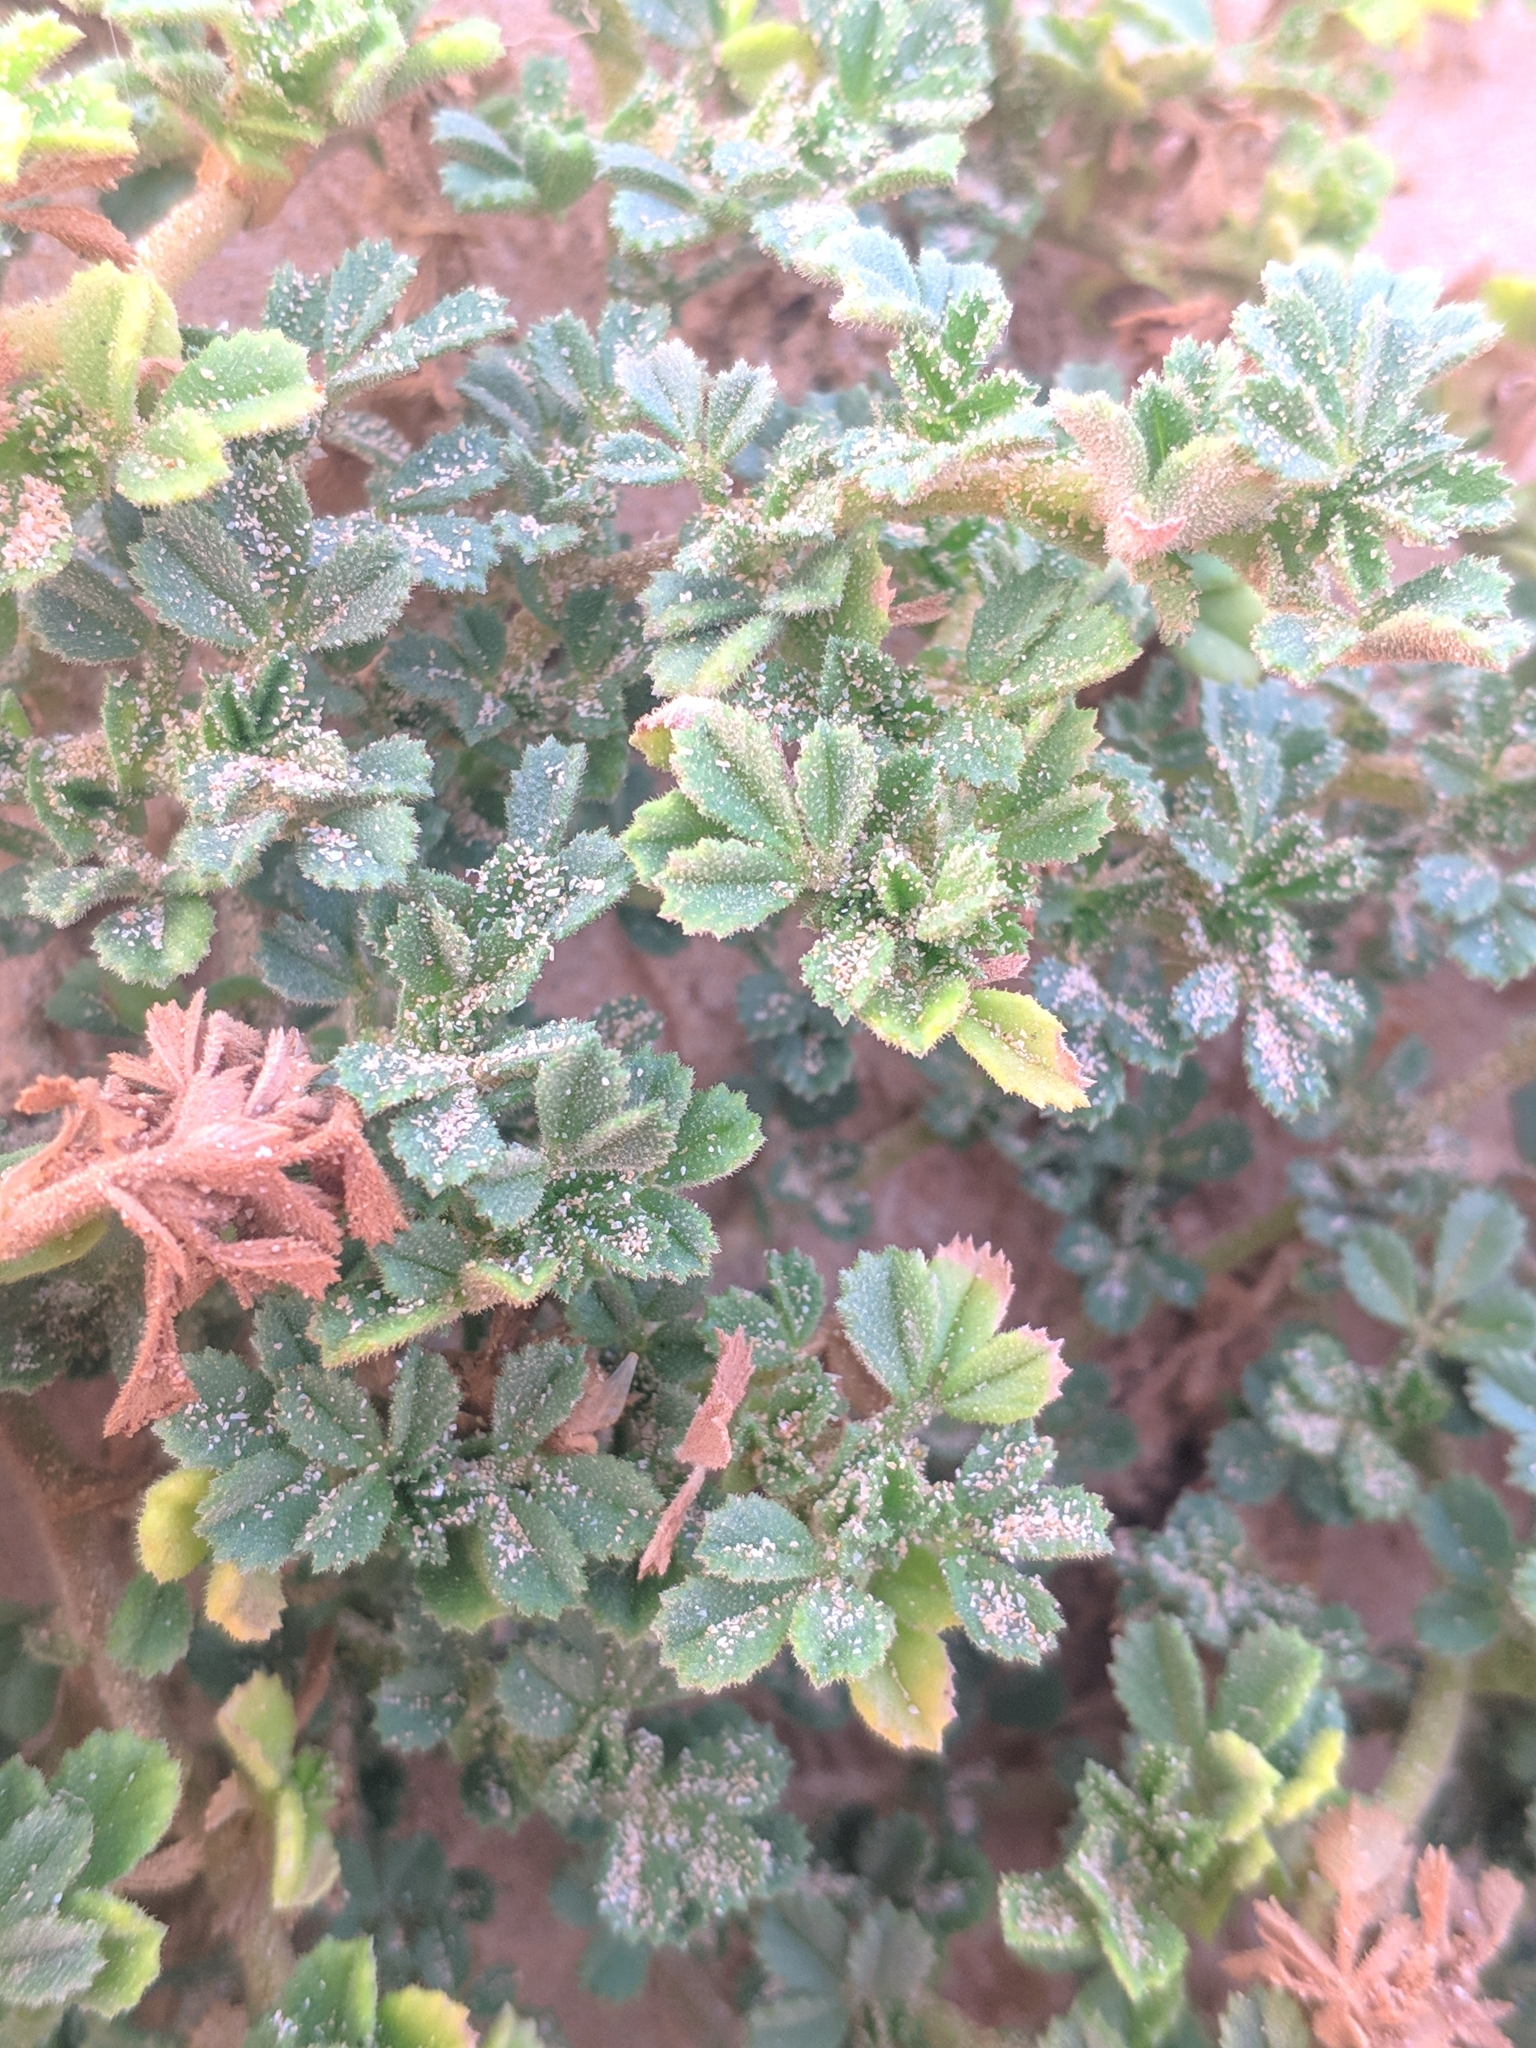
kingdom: Plantae
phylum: Tracheophyta
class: Magnoliopsida
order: Fabales
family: Fabaceae
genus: Ononis
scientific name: Ononis natrix
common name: Yellow restharrow
